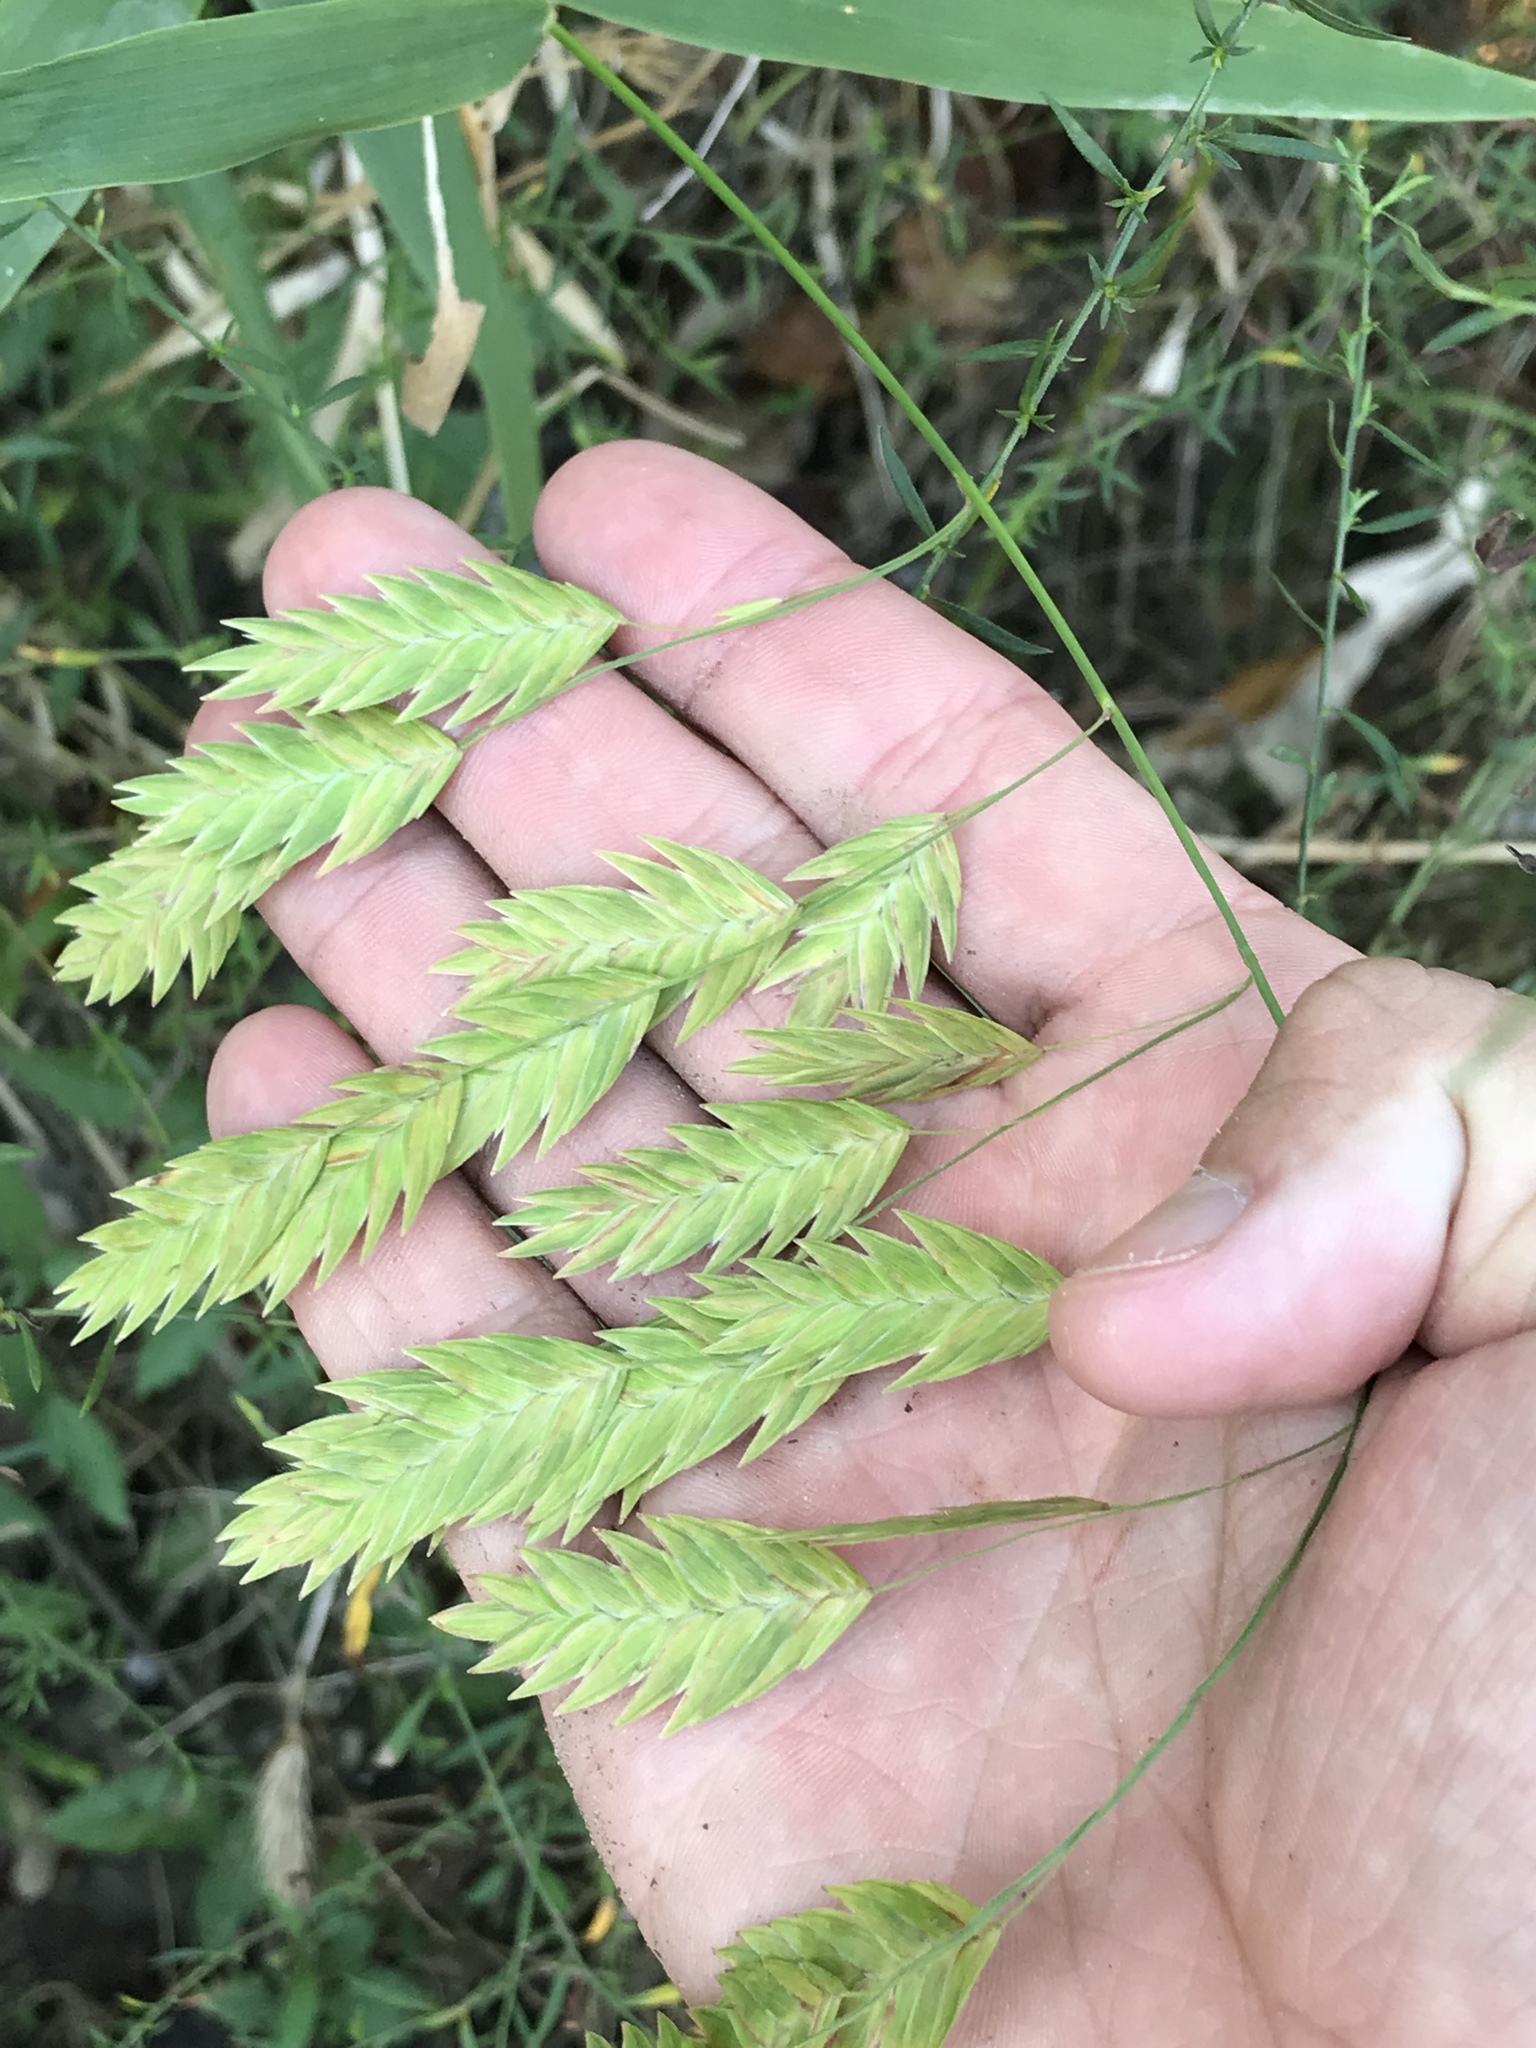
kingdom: Plantae
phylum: Tracheophyta
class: Liliopsida
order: Poales
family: Poaceae
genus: Chasmanthium
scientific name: Chasmanthium latifolium
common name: Broad-leaved chasmanthium
